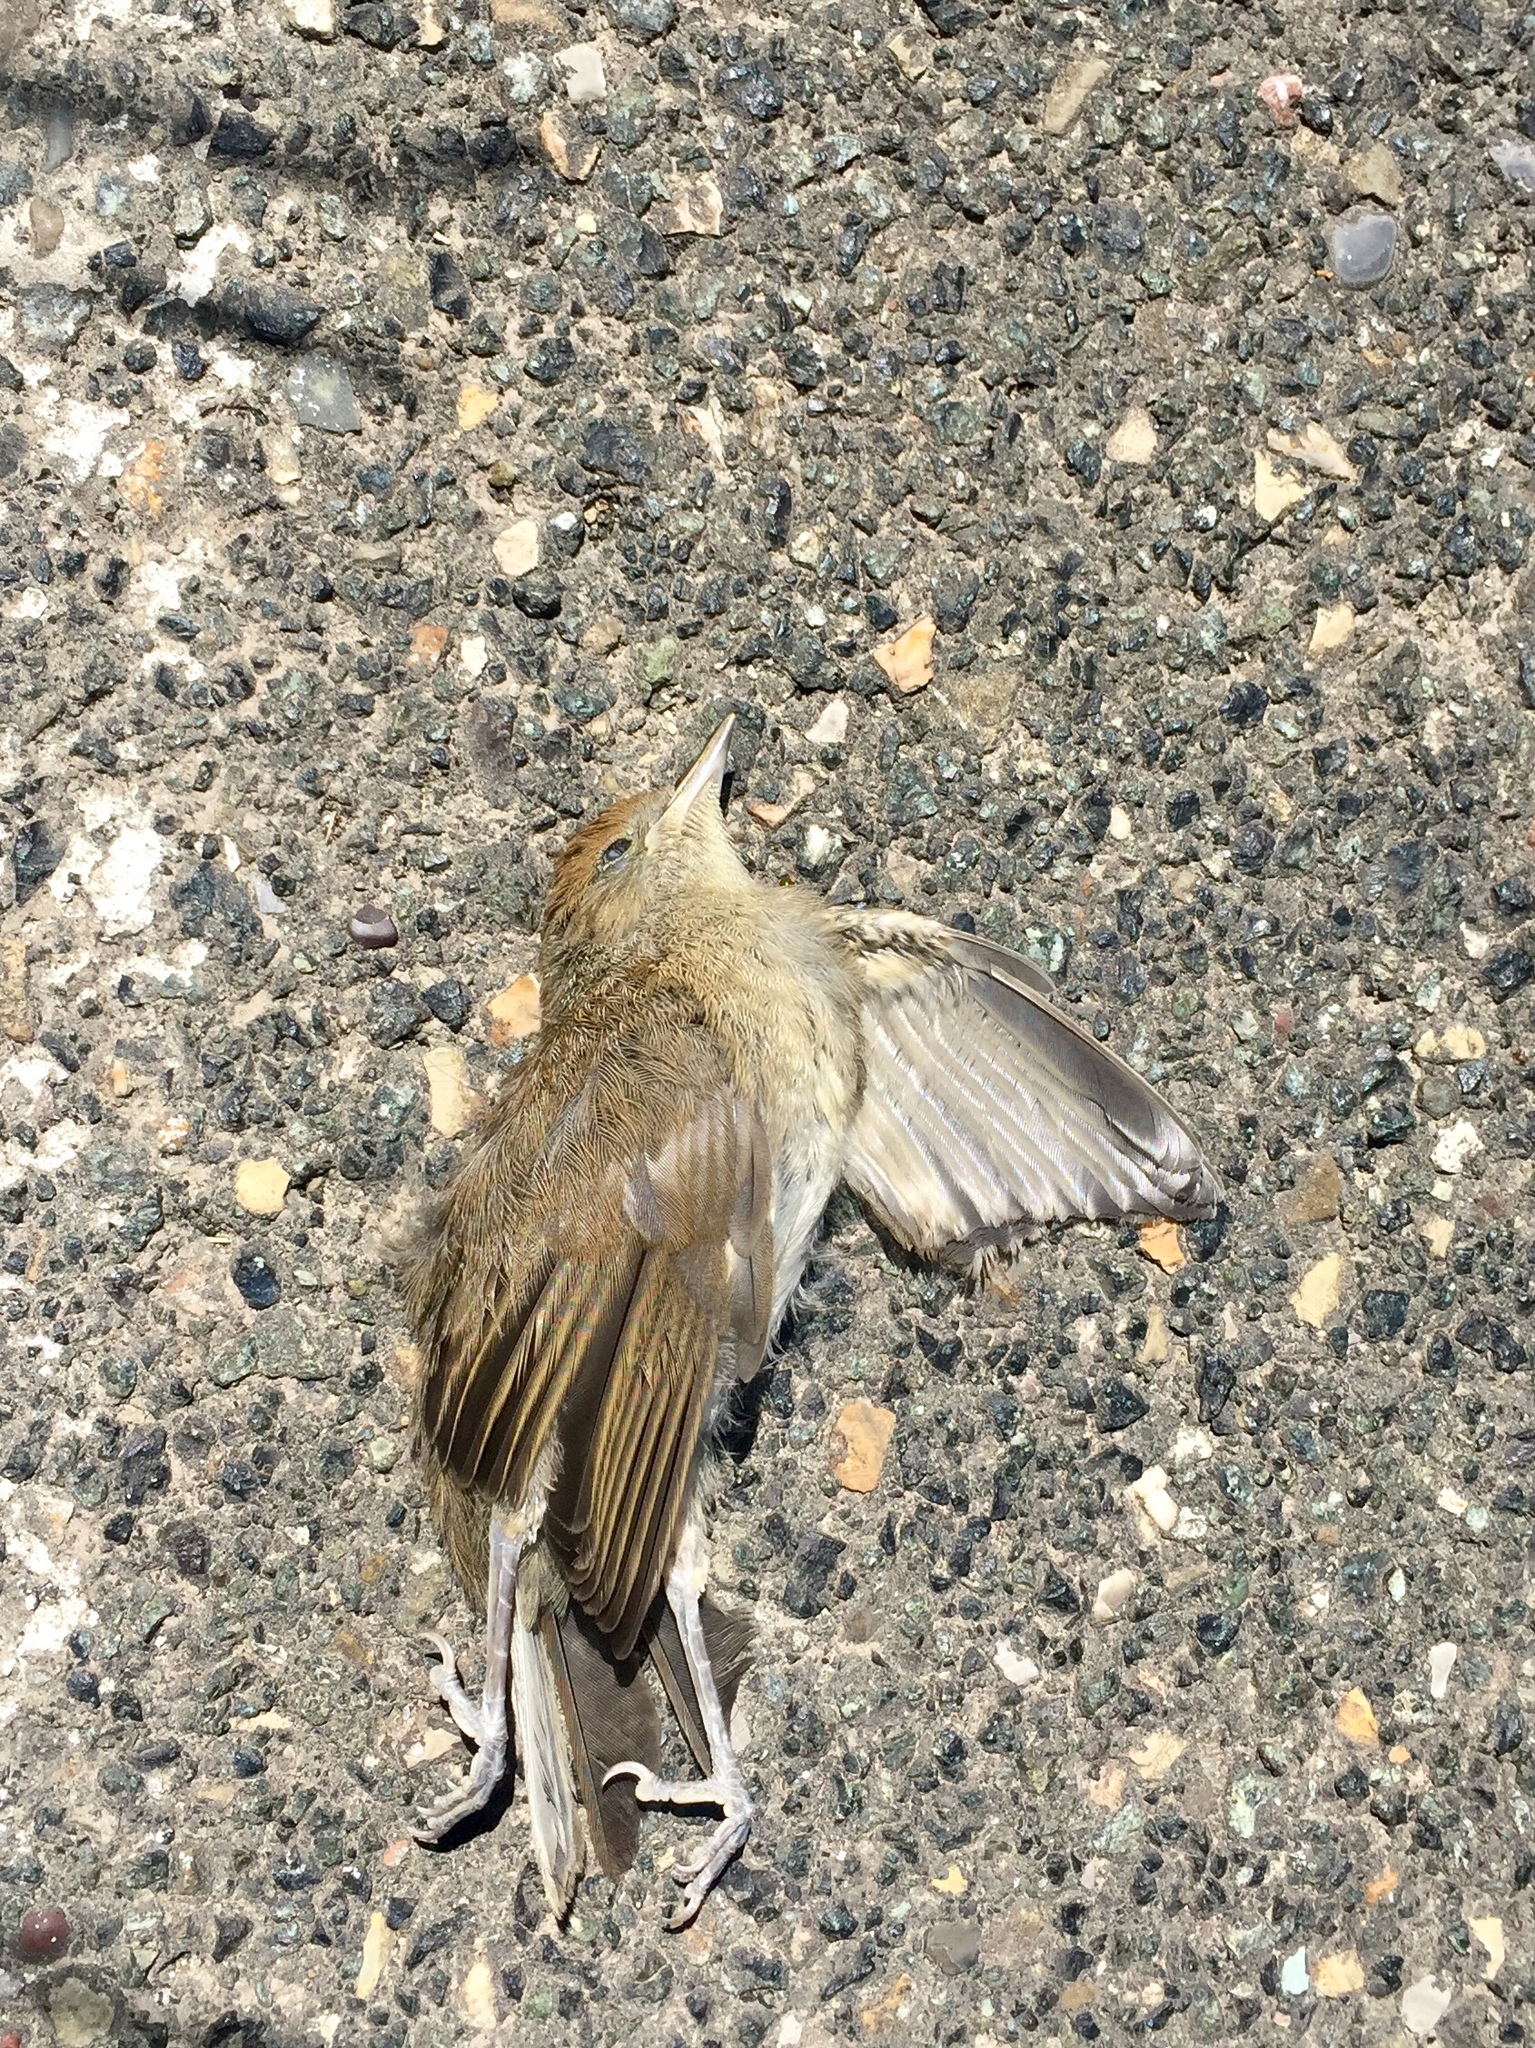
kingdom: Animalia
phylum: Chordata
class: Aves
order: Passeriformes
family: Sylviidae
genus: Sylvia
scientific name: Sylvia atricapilla
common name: Eurasian blackcap
